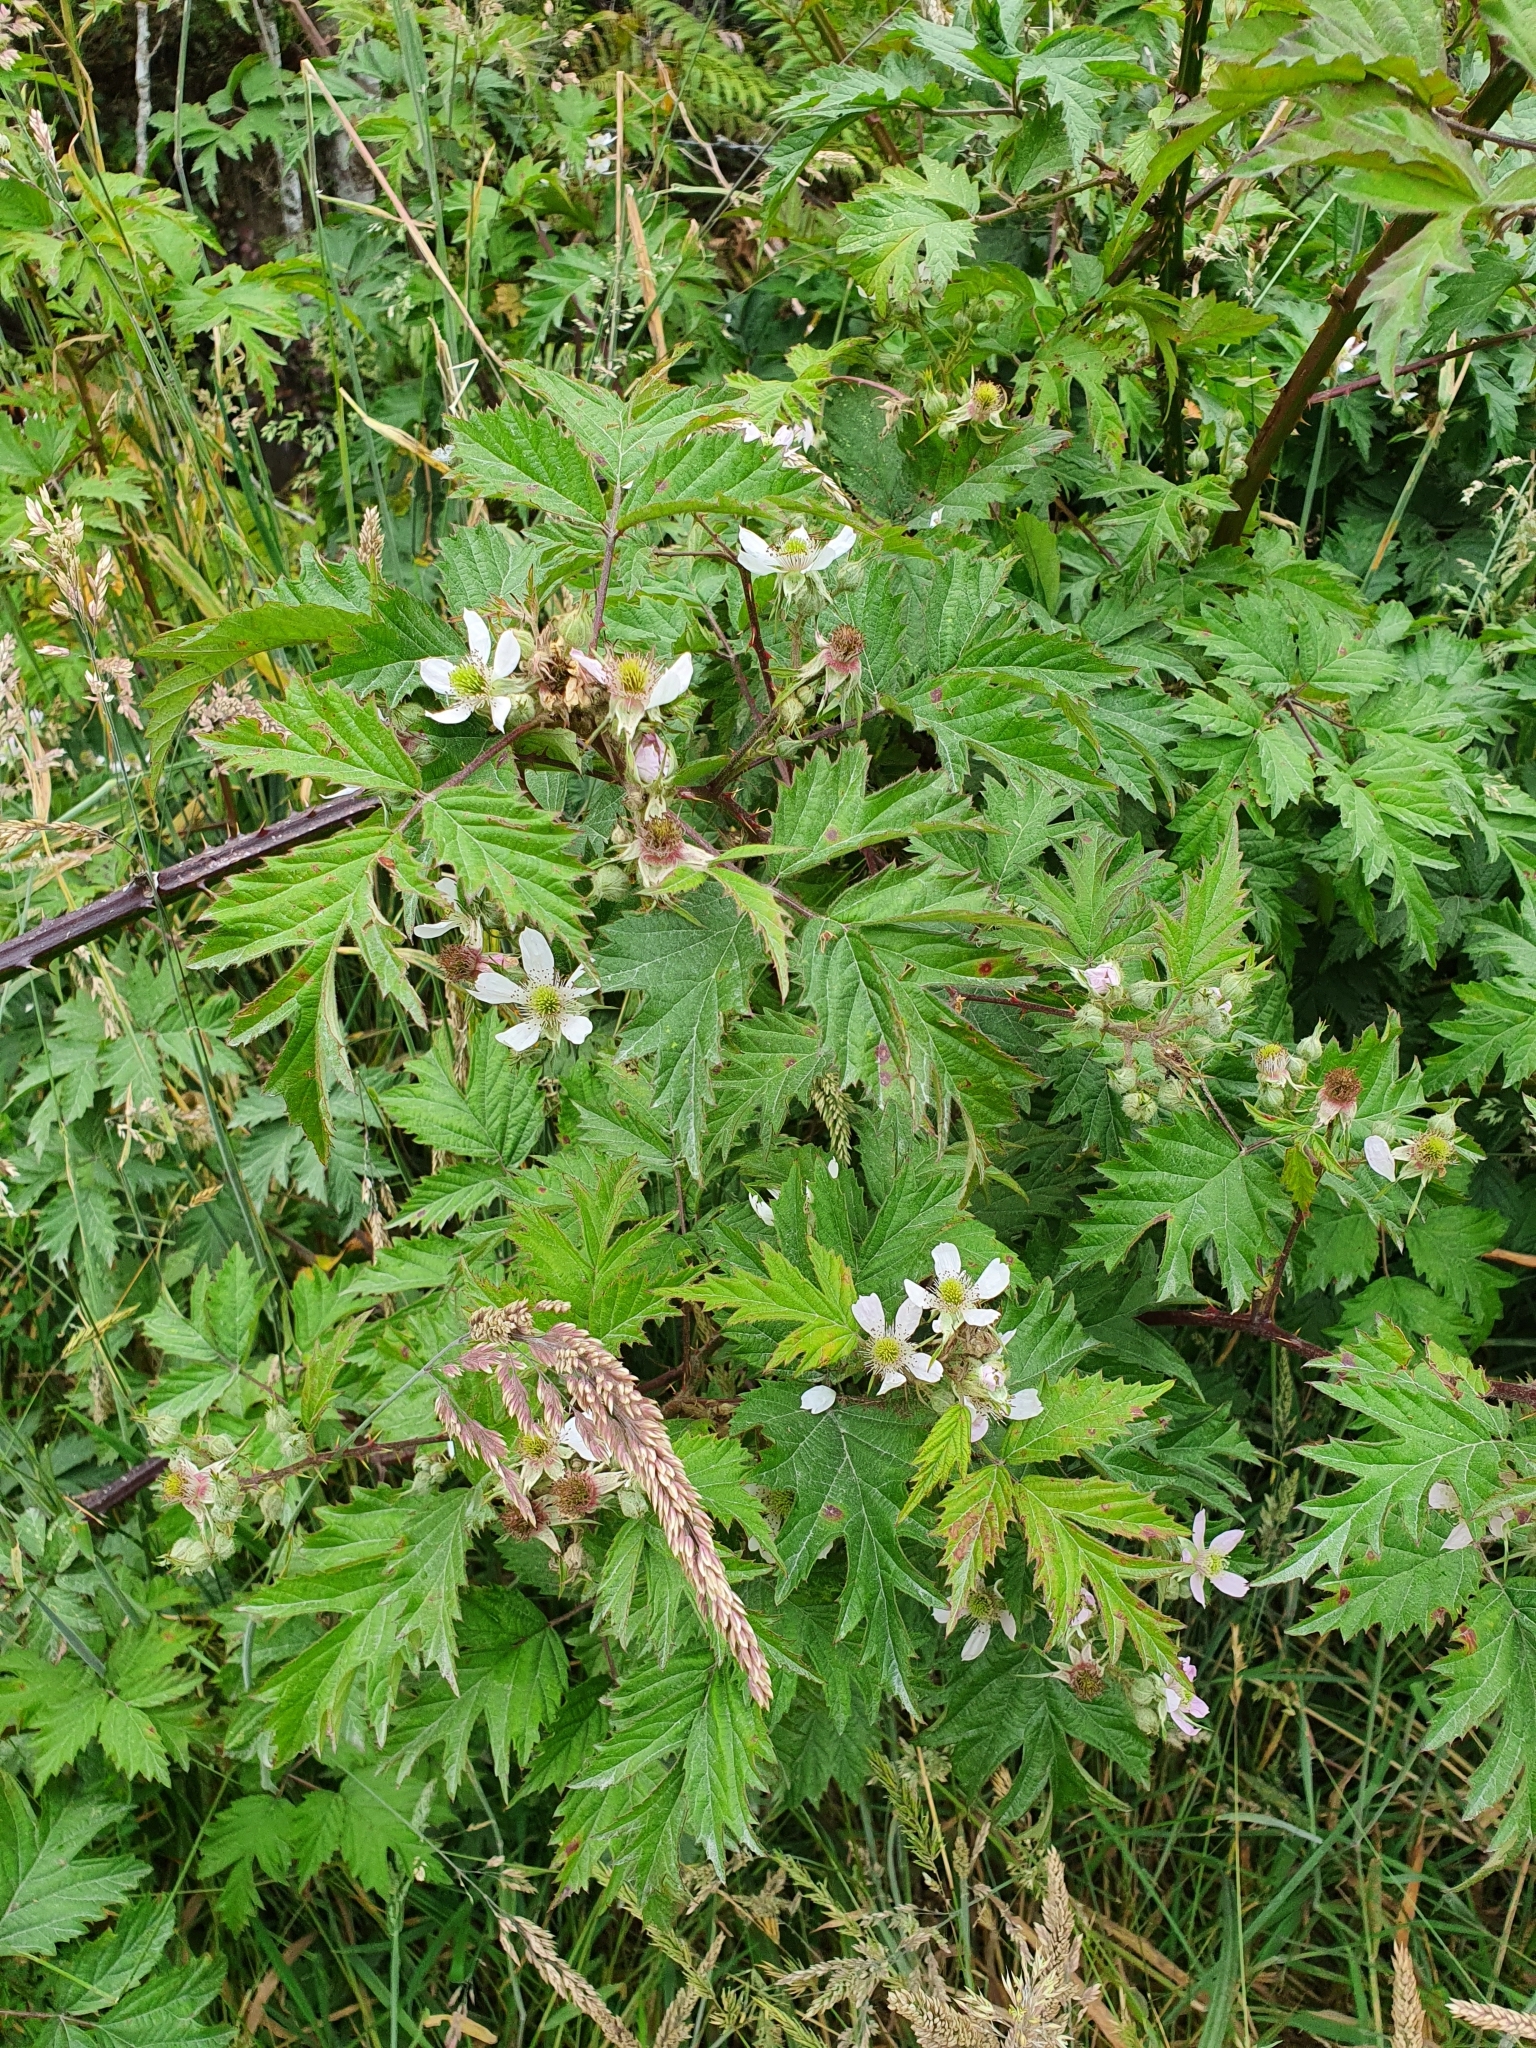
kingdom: Plantae
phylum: Tracheophyta
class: Magnoliopsida
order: Rosales
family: Rosaceae
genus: Rubus
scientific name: Rubus laciniatus
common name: Evergreen blackberry
